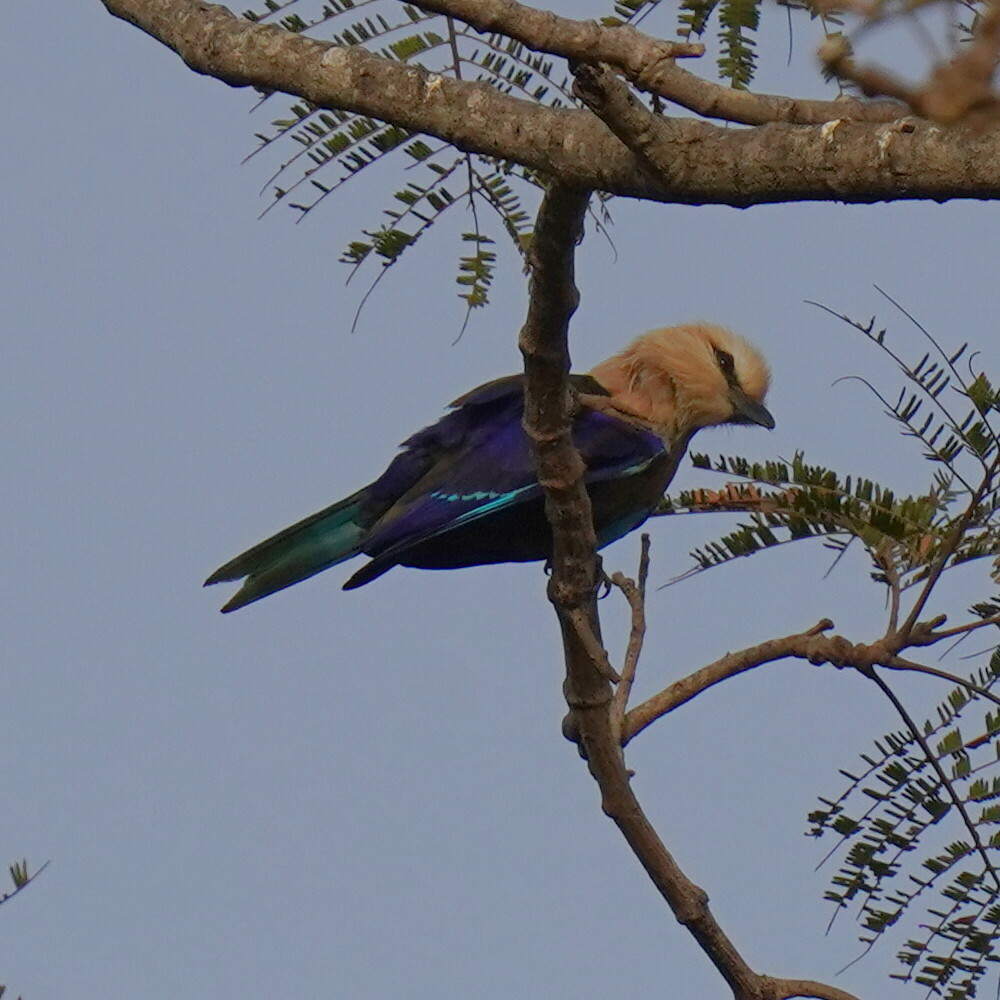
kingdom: Animalia
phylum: Chordata
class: Aves
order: Coraciiformes
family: Coraciidae
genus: Coracias
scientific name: Coracias cyanogaster
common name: Blue-bellied roller
